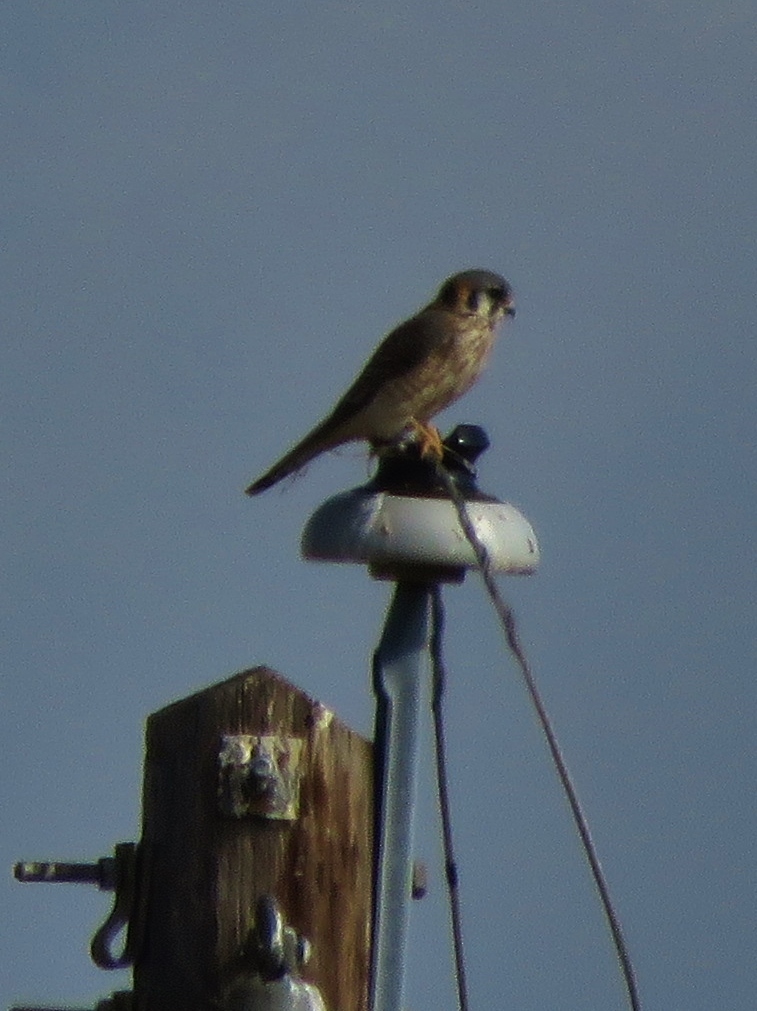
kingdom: Animalia
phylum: Chordata
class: Aves
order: Falconiformes
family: Falconidae
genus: Falco
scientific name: Falco sparverius
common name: American kestrel
